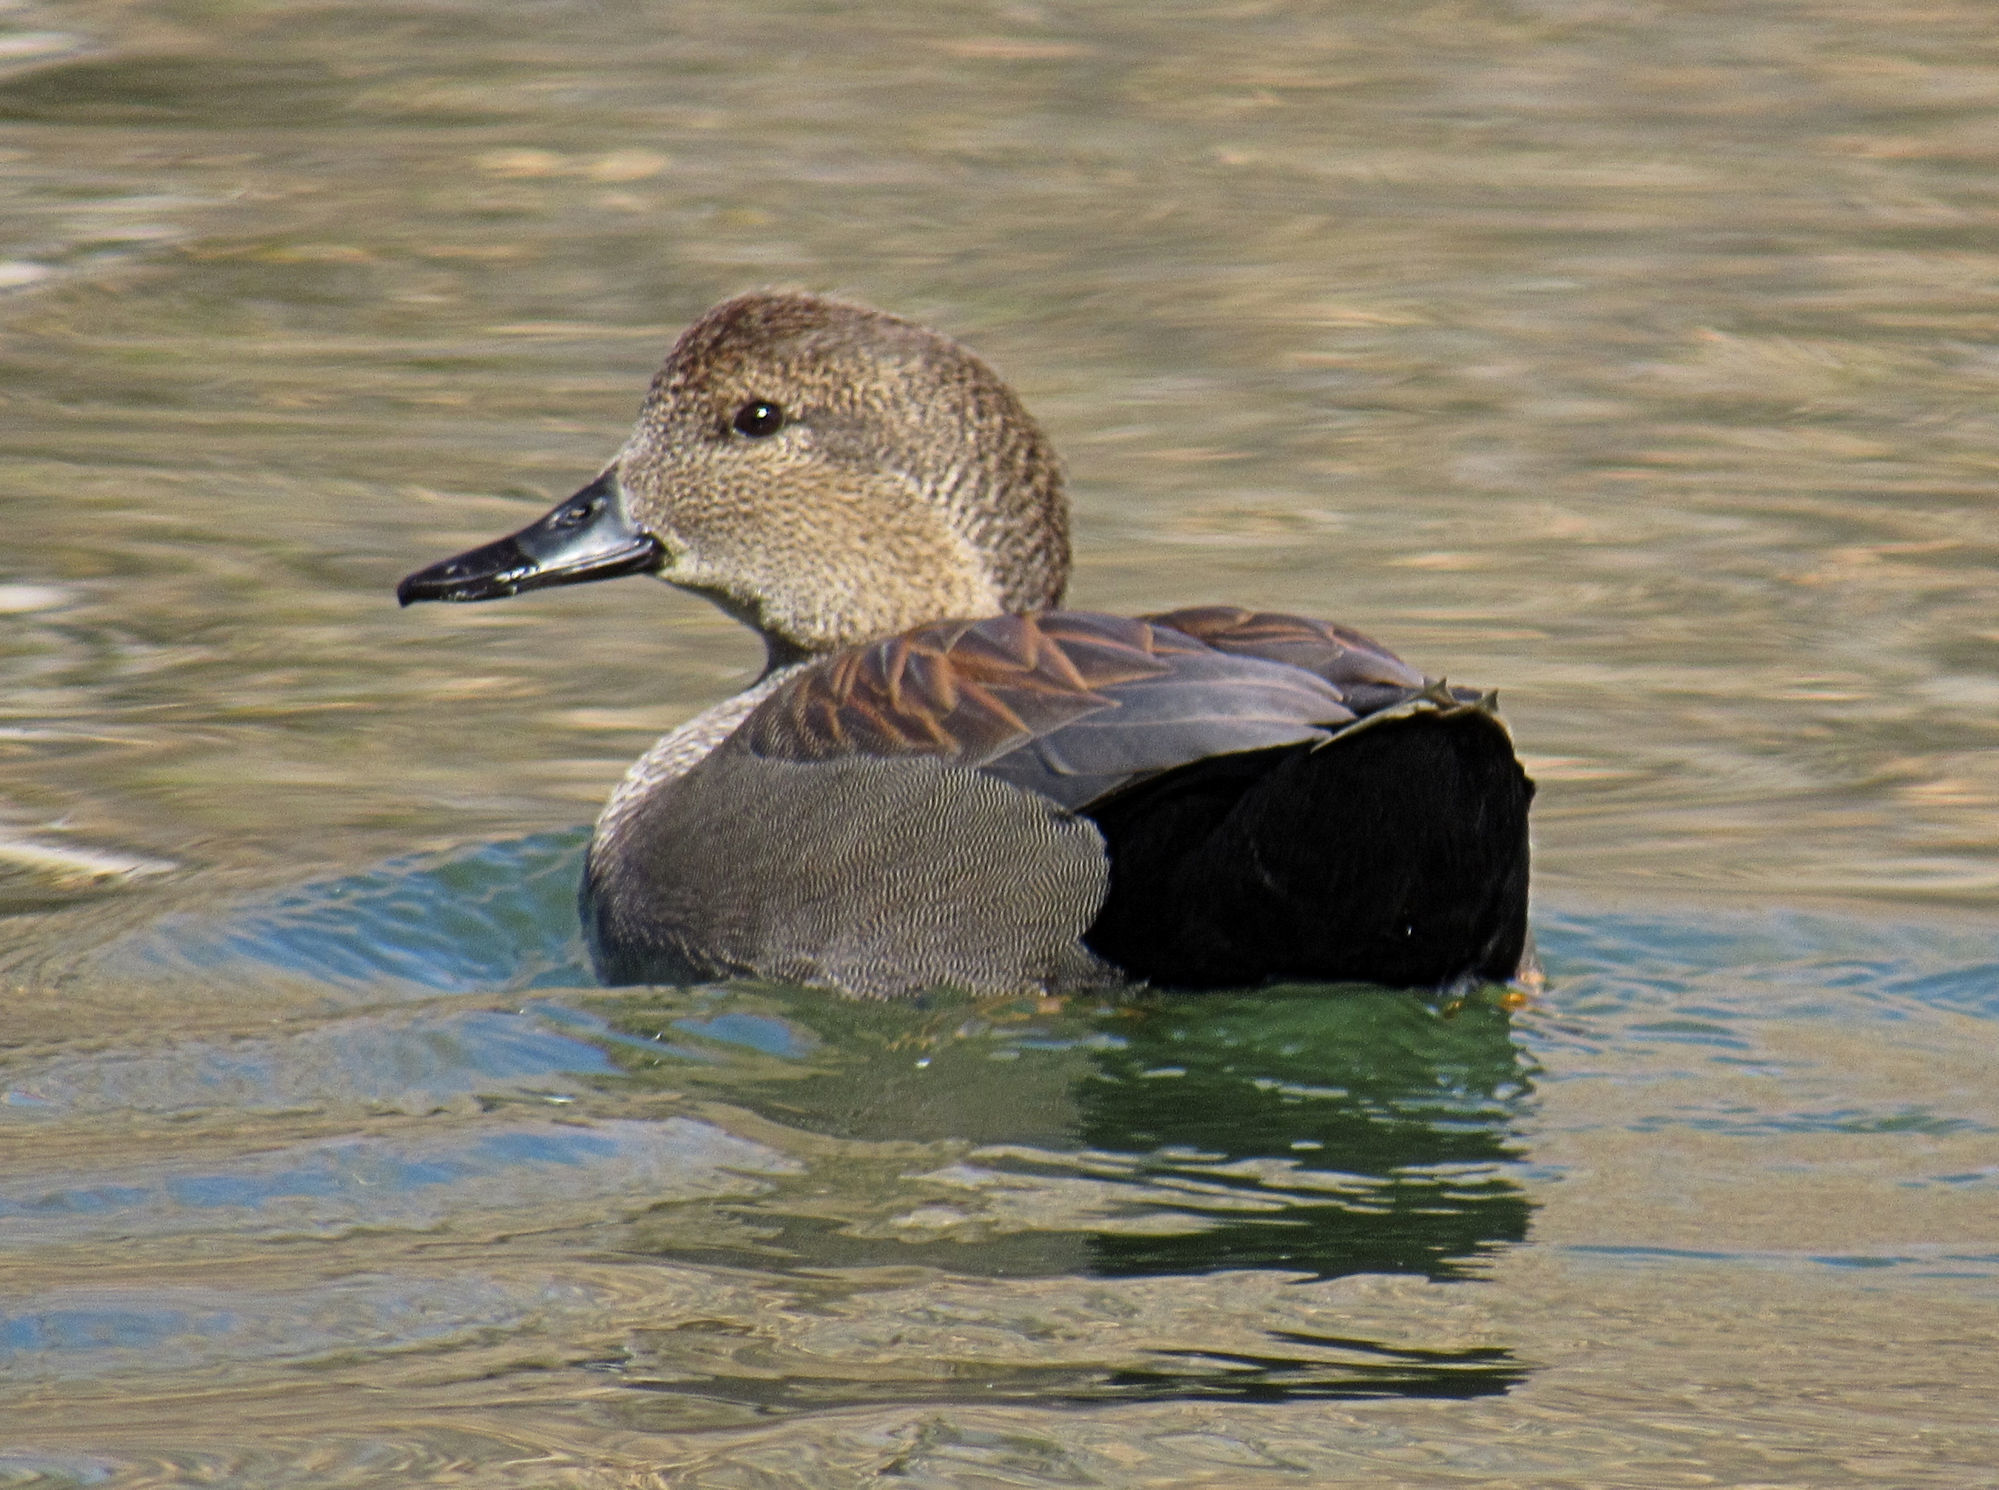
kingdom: Animalia
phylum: Chordata
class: Aves
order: Anseriformes
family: Anatidae
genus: Mareca
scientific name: Mareca strepera
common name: Gadwall
